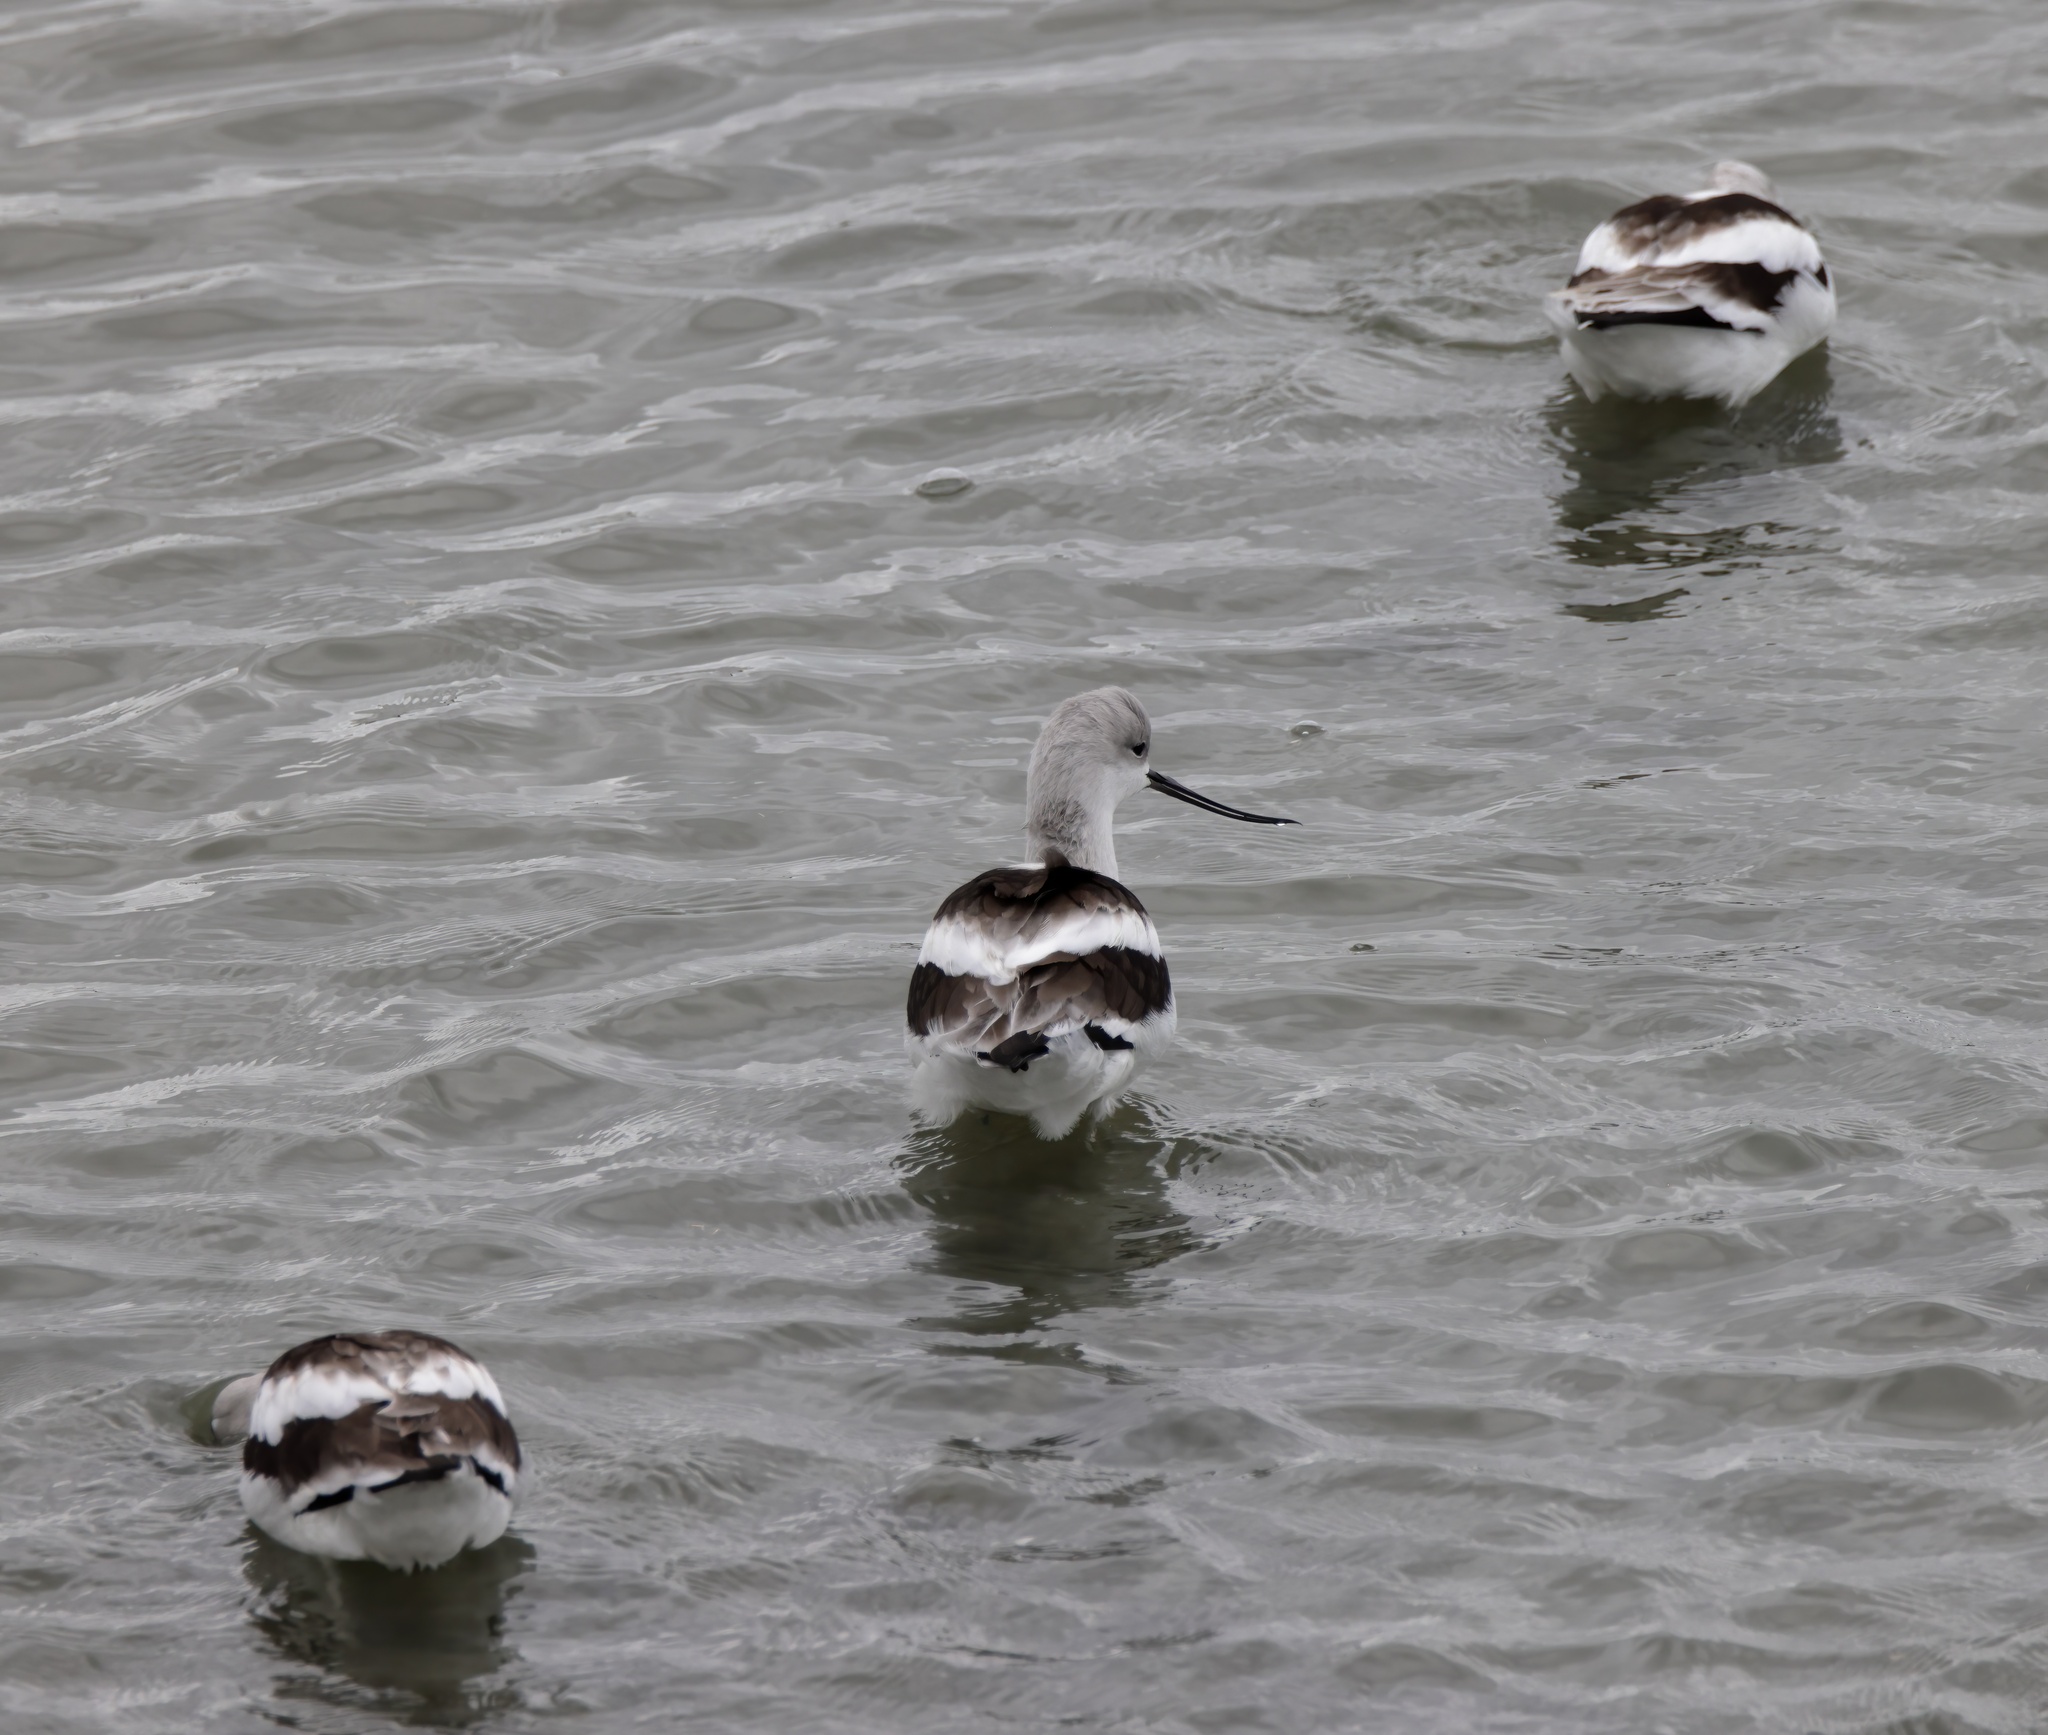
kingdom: Animalia
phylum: Chordata
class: Aves
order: Charadriiformes
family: Recurvirostridae
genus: Recurvirostra
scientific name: Recurvirostra americana
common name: American avocet
